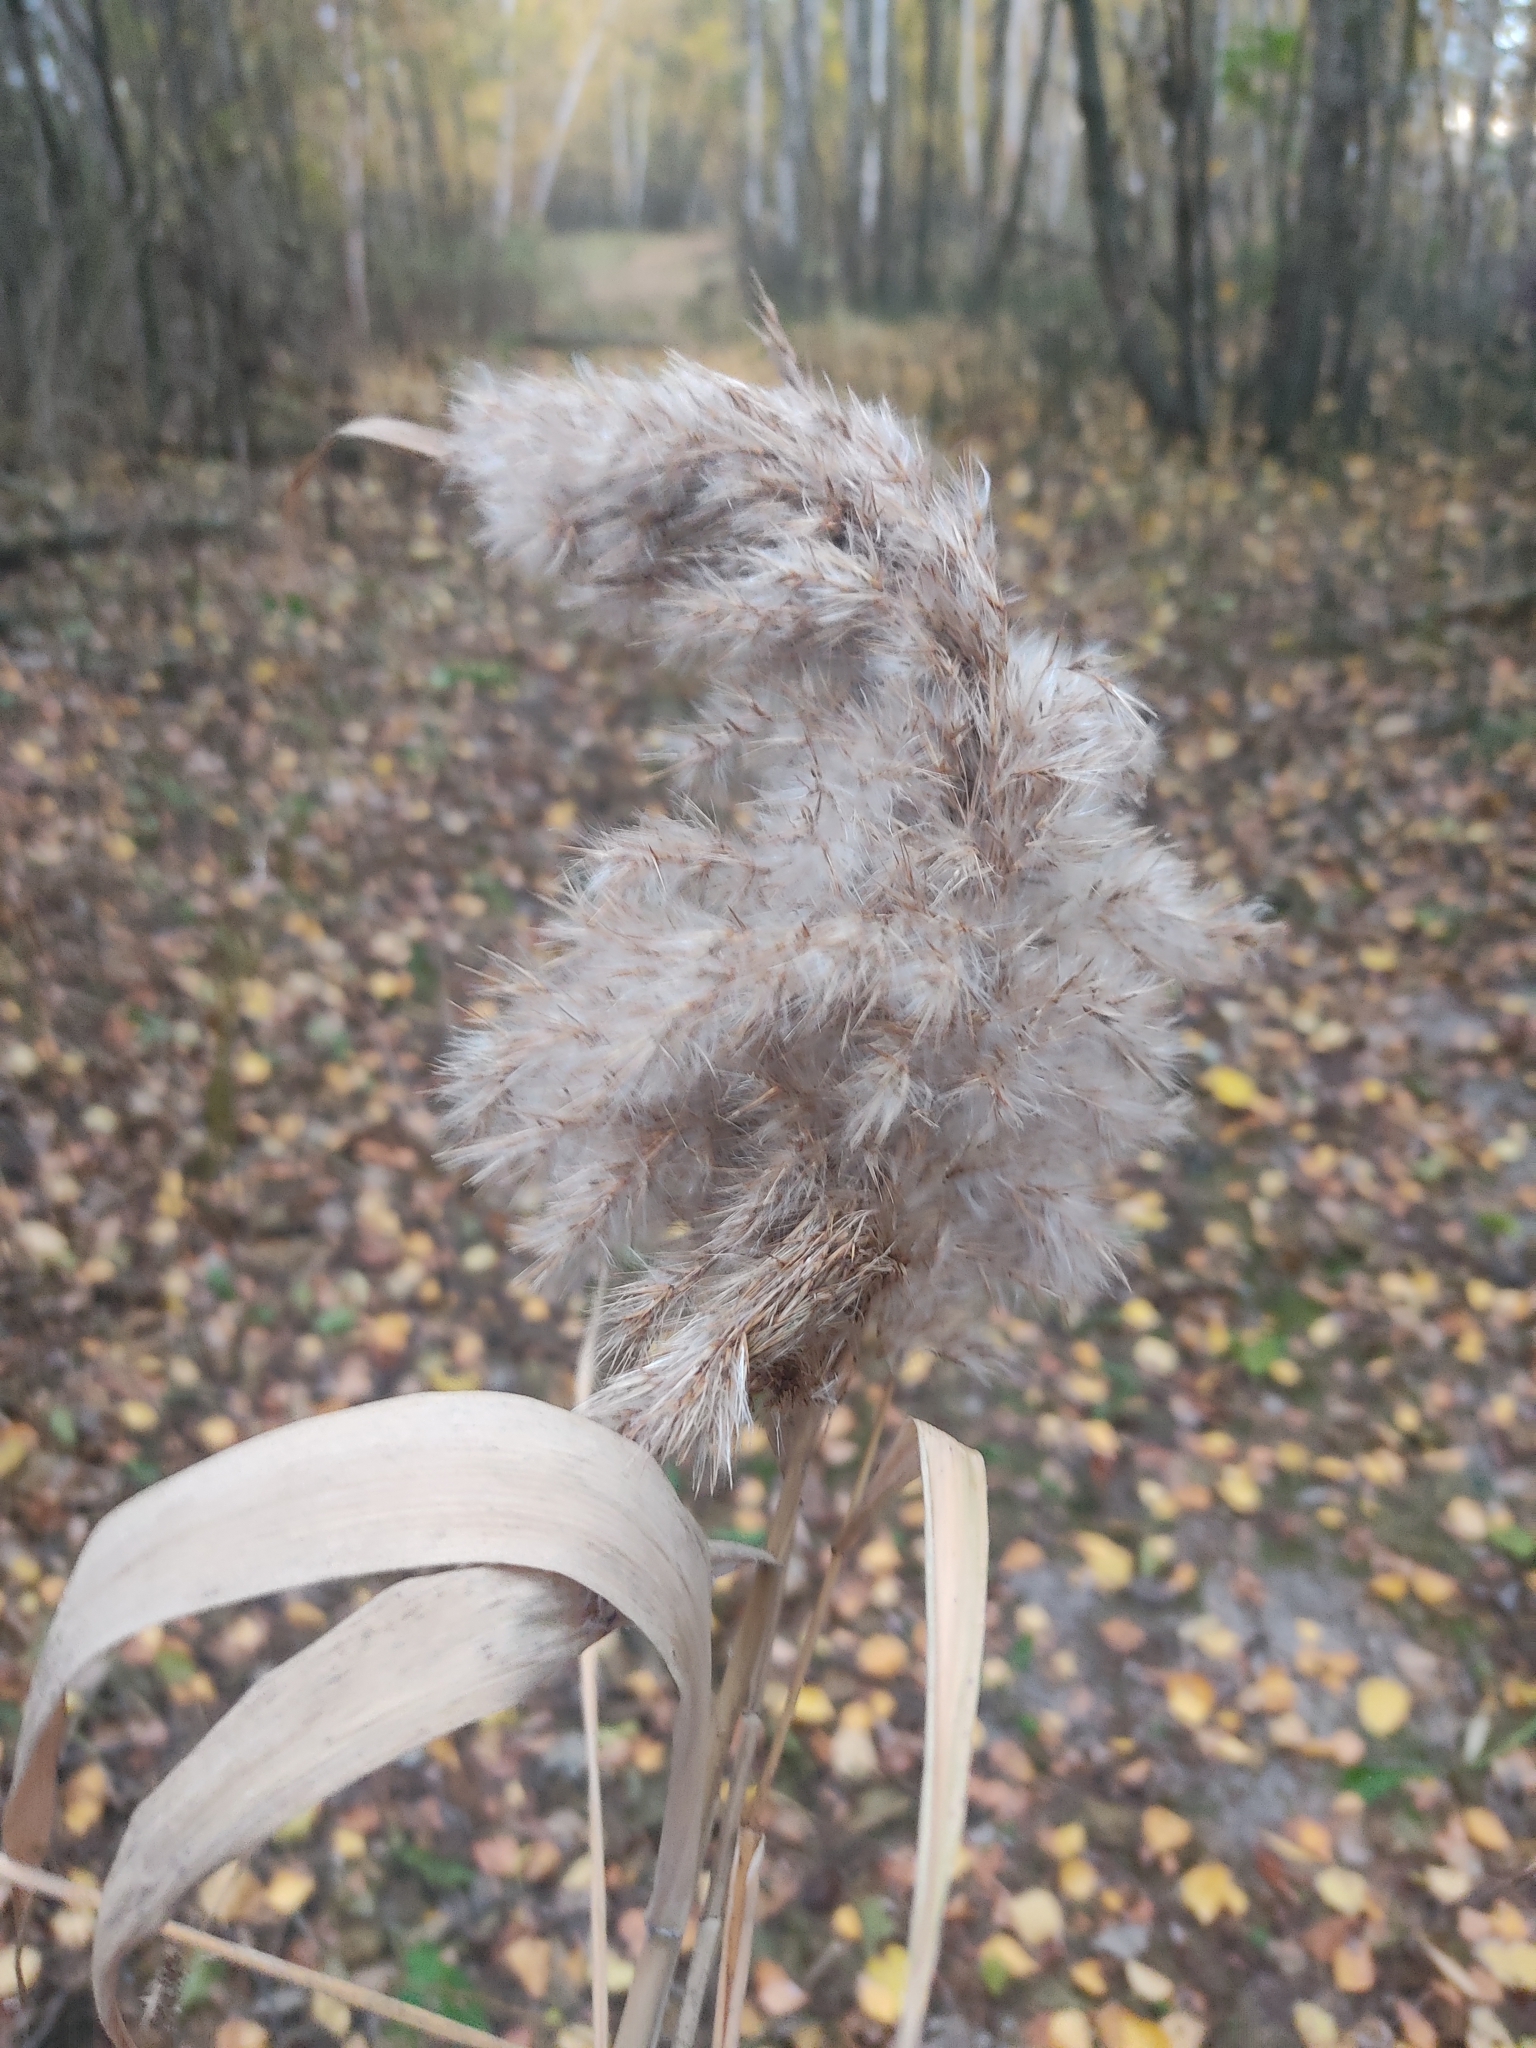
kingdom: Plantae
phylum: Tracheophyta
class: Liliopsida
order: Poales
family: Poaceae
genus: Phragmites
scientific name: Phragmites australis
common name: Common reed
